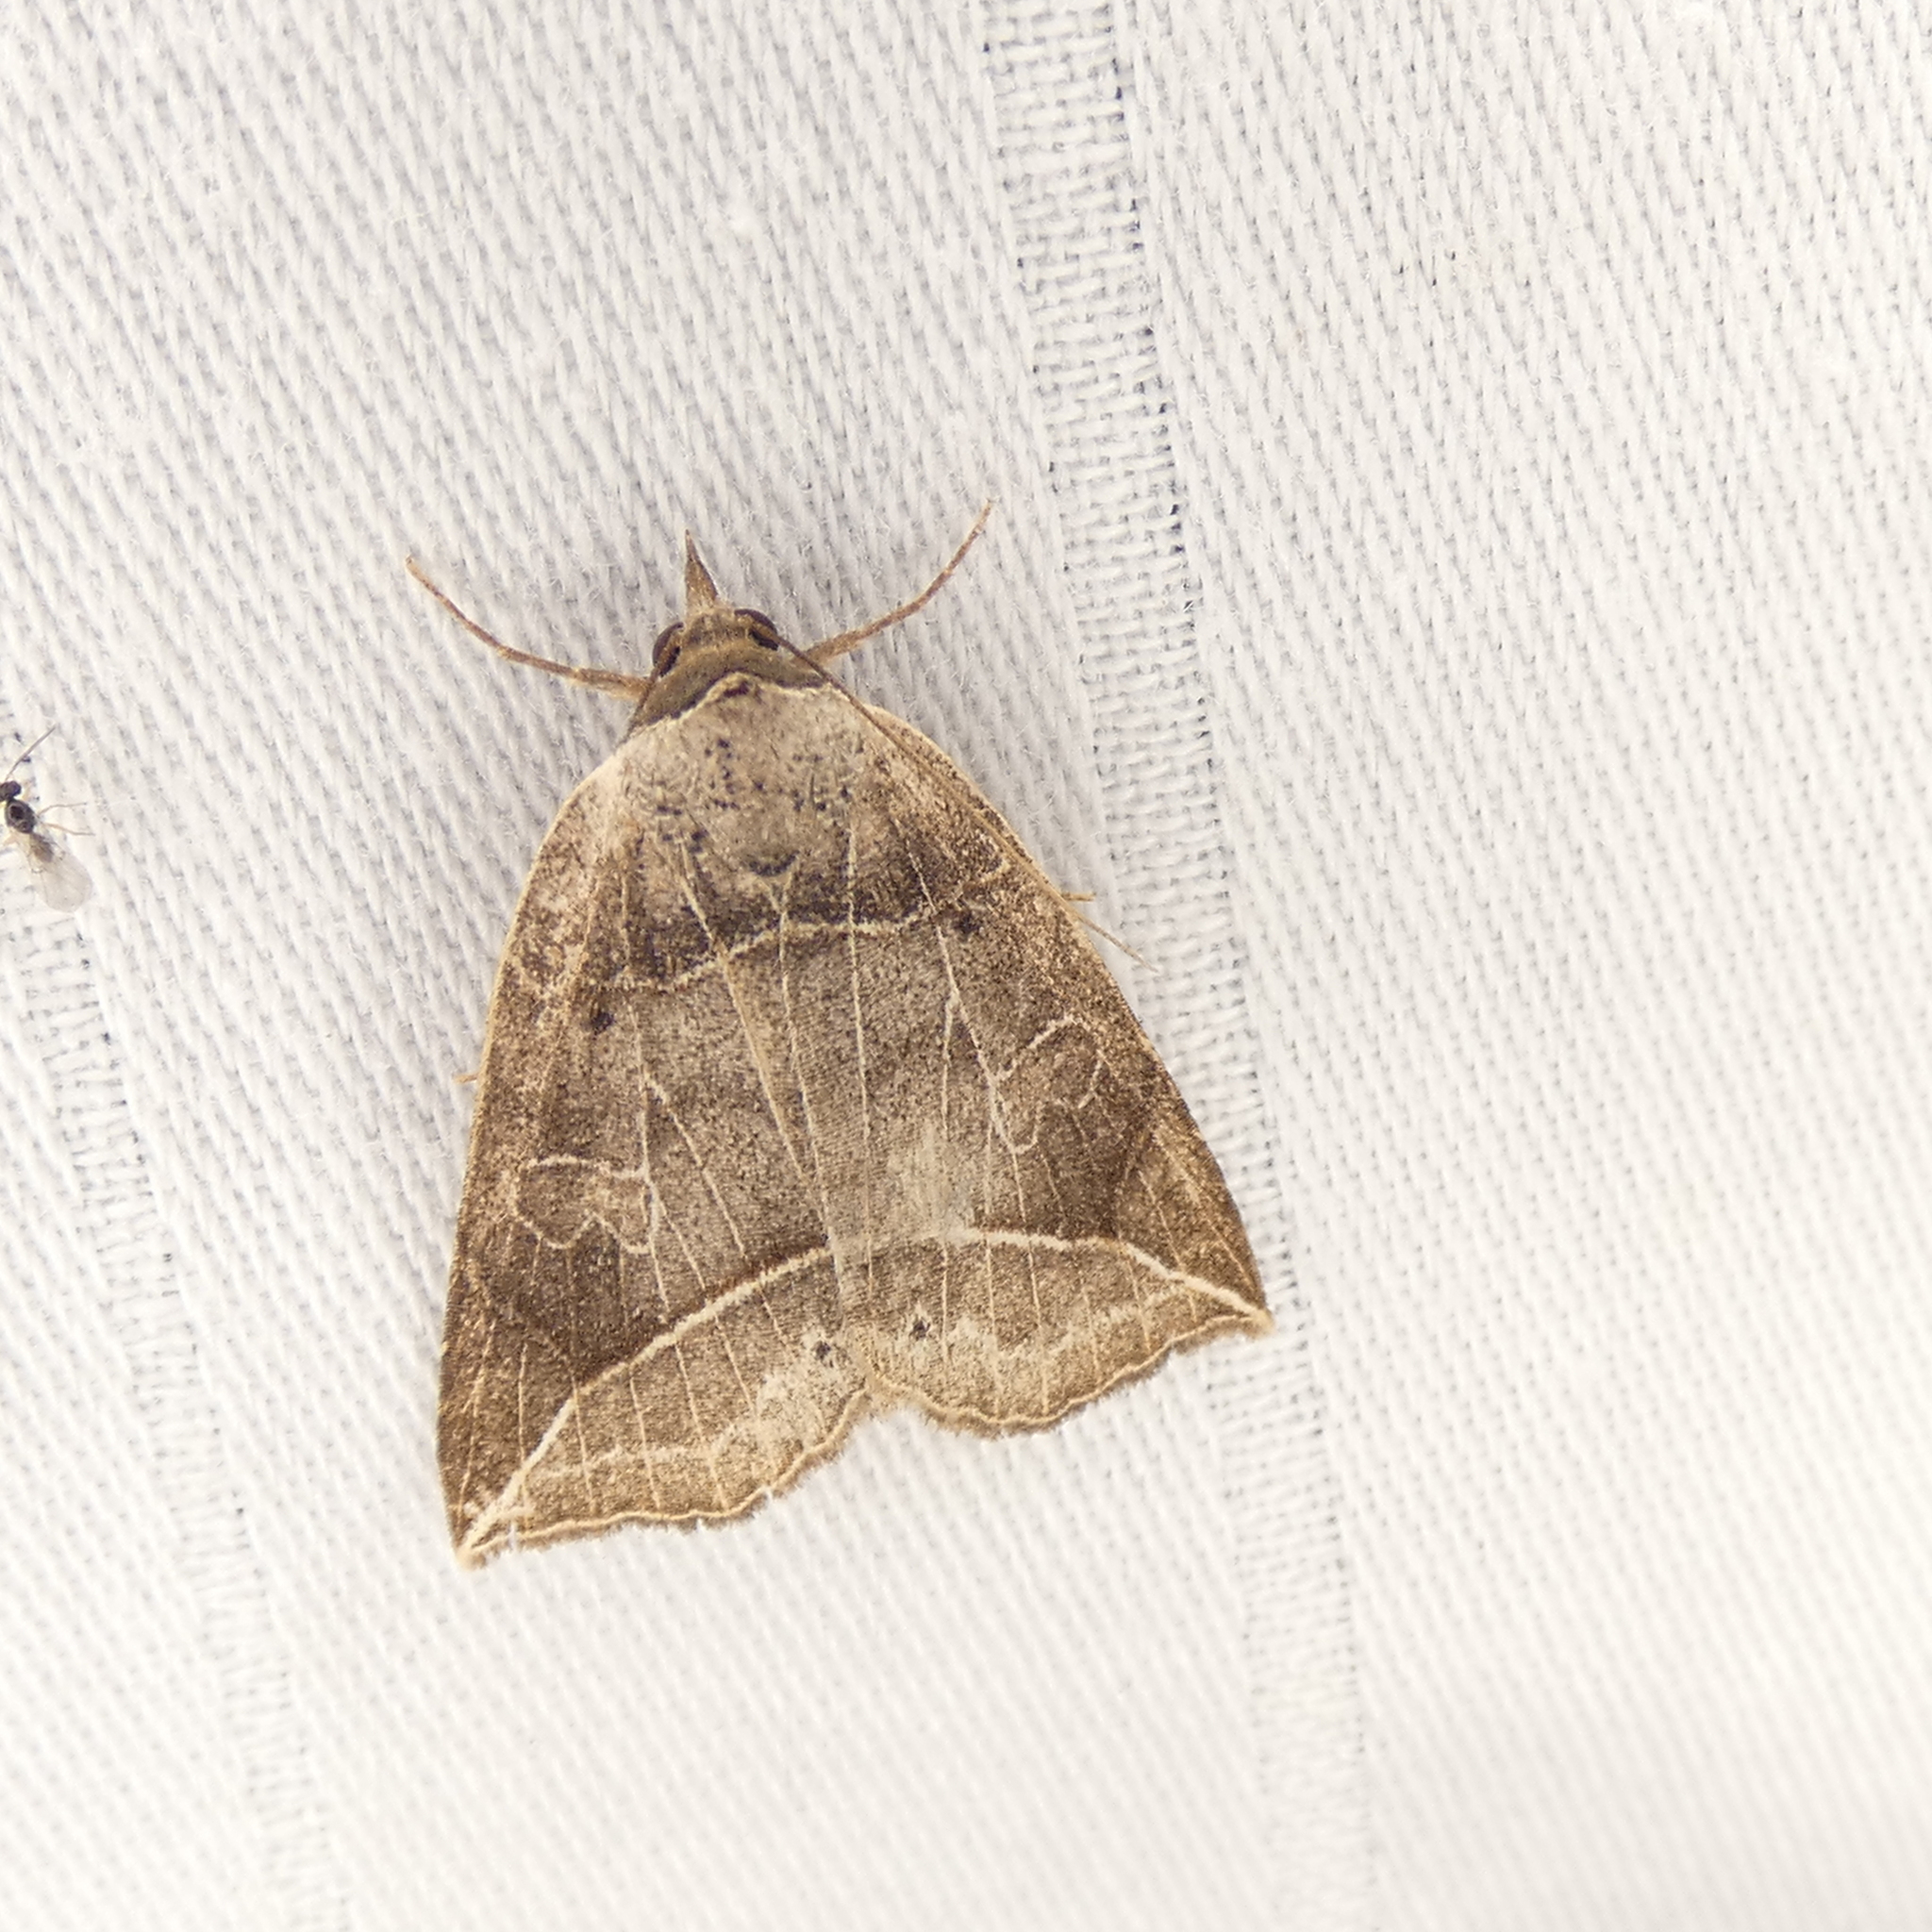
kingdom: Animalia
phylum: Arthropoda
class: Insecta
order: Lepidoptera
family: Erebidae
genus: Isogona
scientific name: Isogona tenuis
